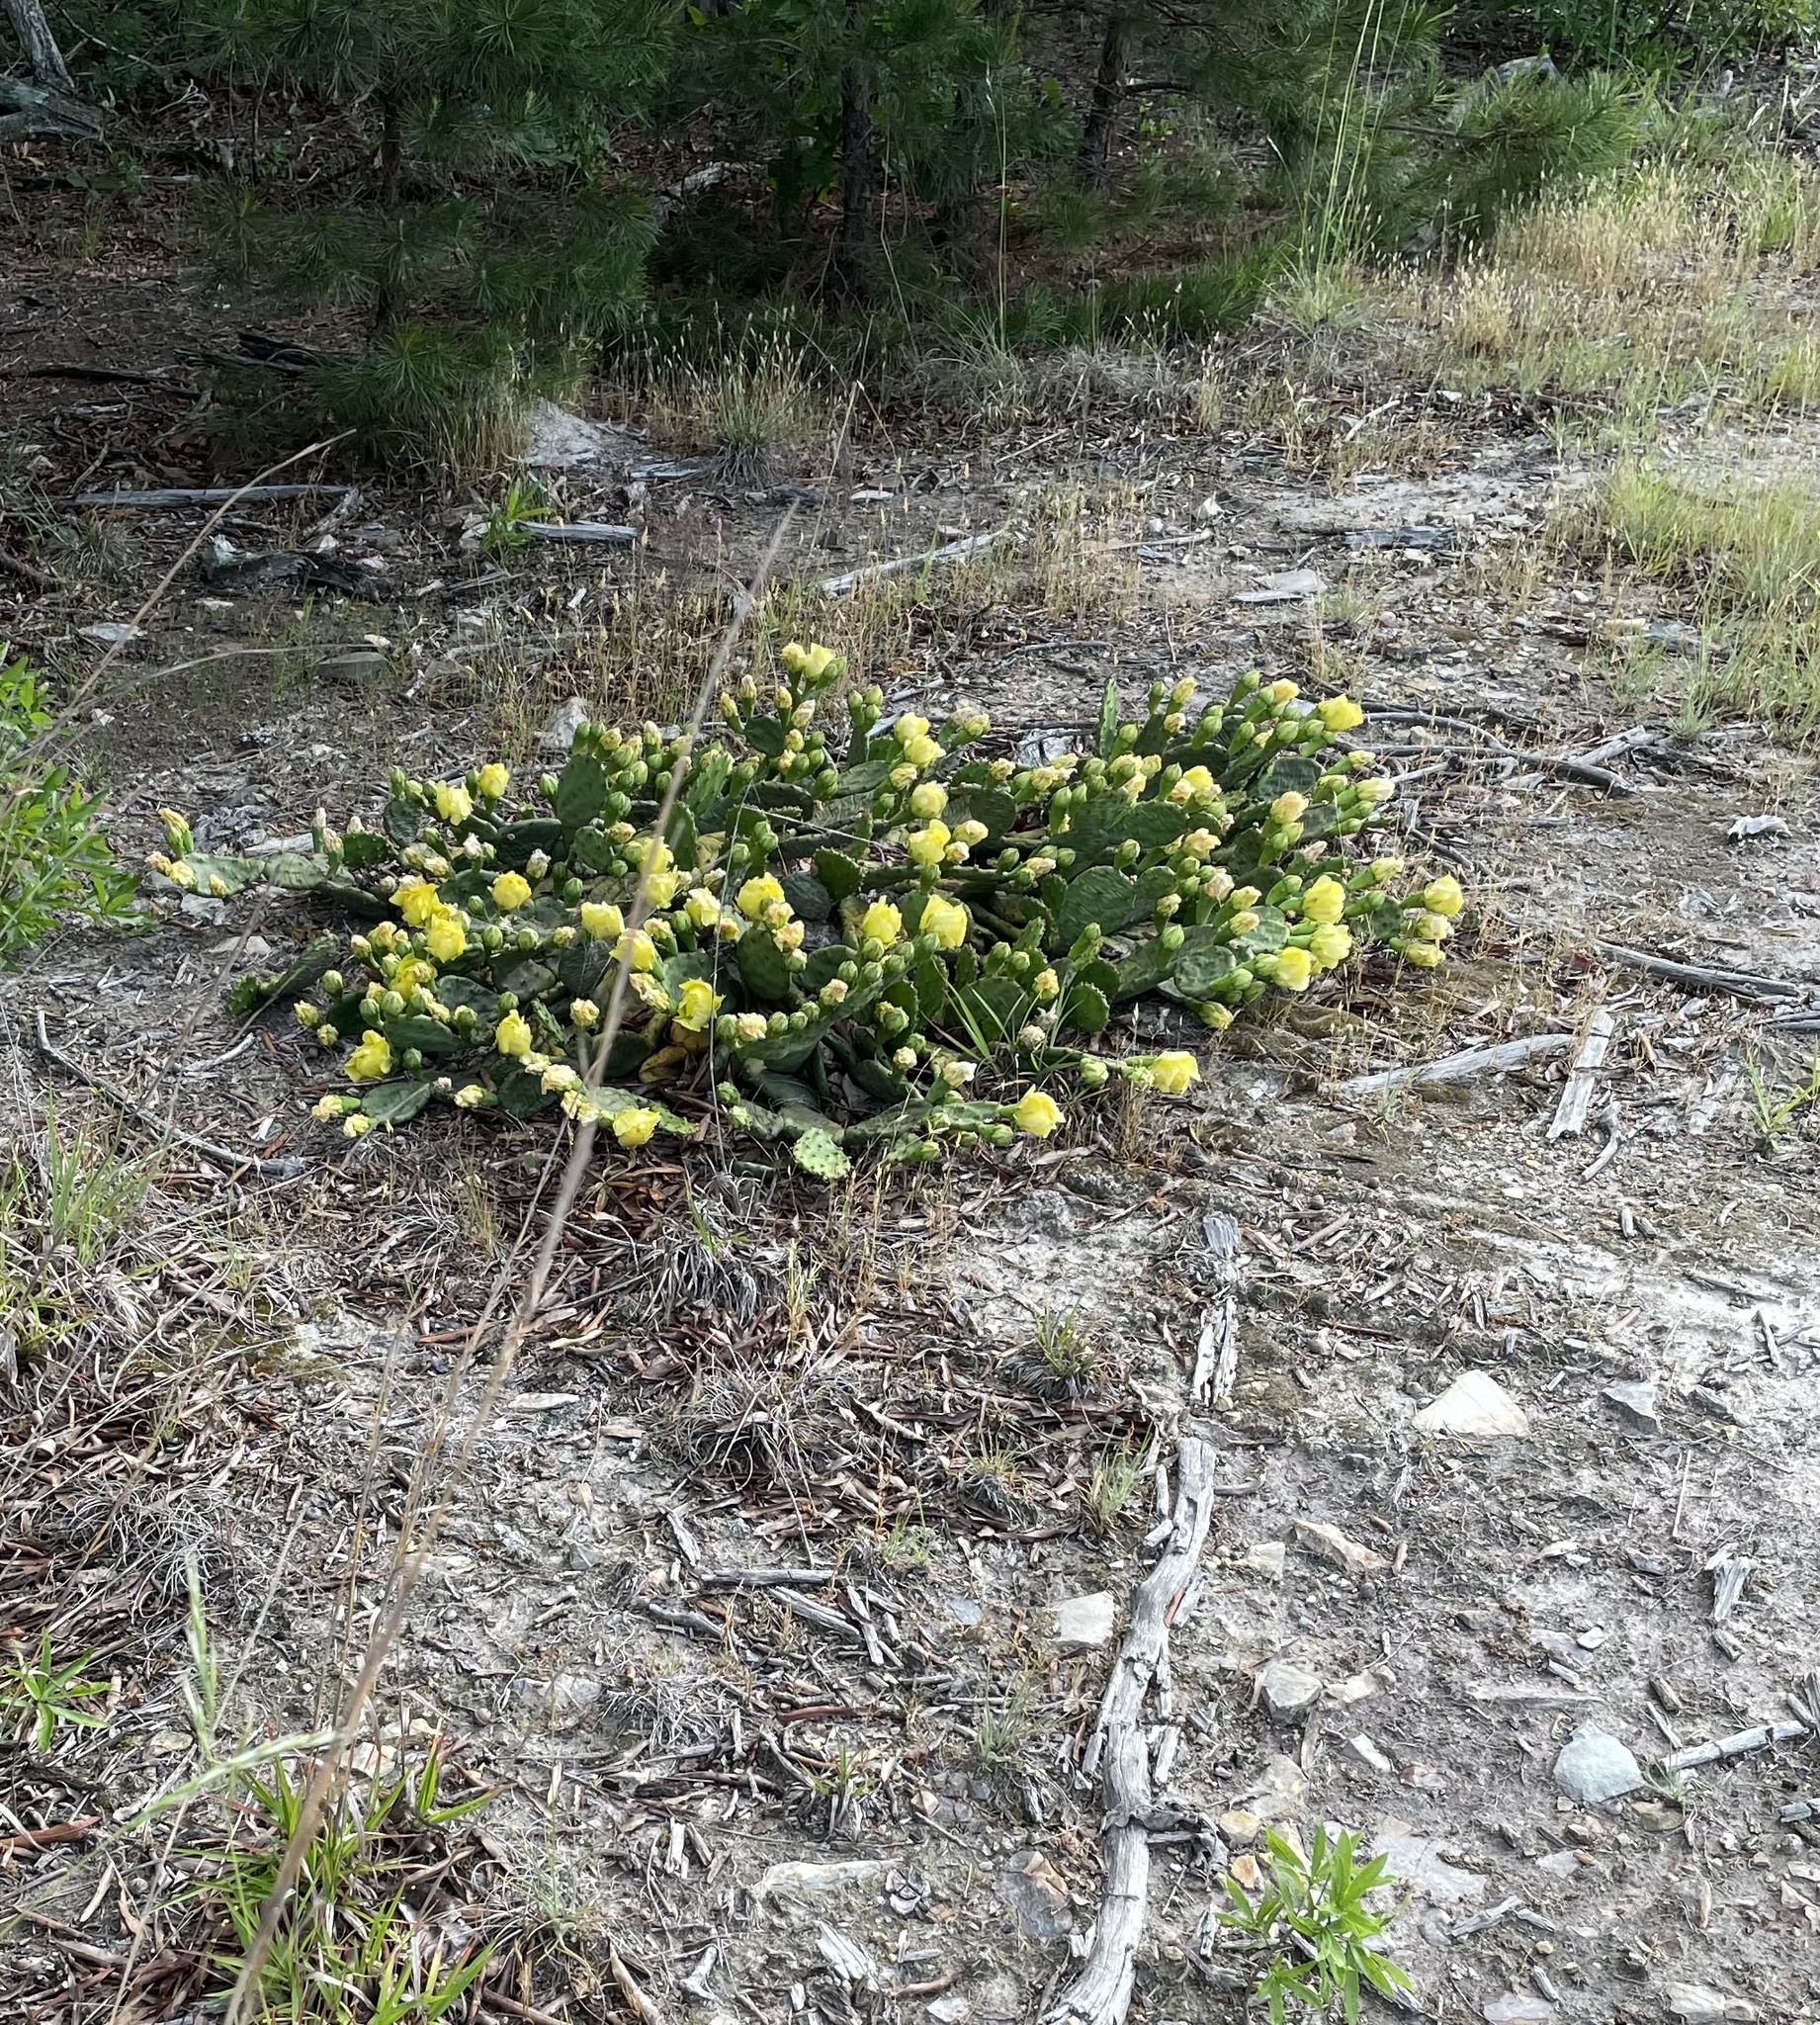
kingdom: Plantae
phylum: Tracheophyta
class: Magnoliopsida
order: Caryophyllales
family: Cactaceae
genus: Opuntia
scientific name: Opuntia mesacantha
